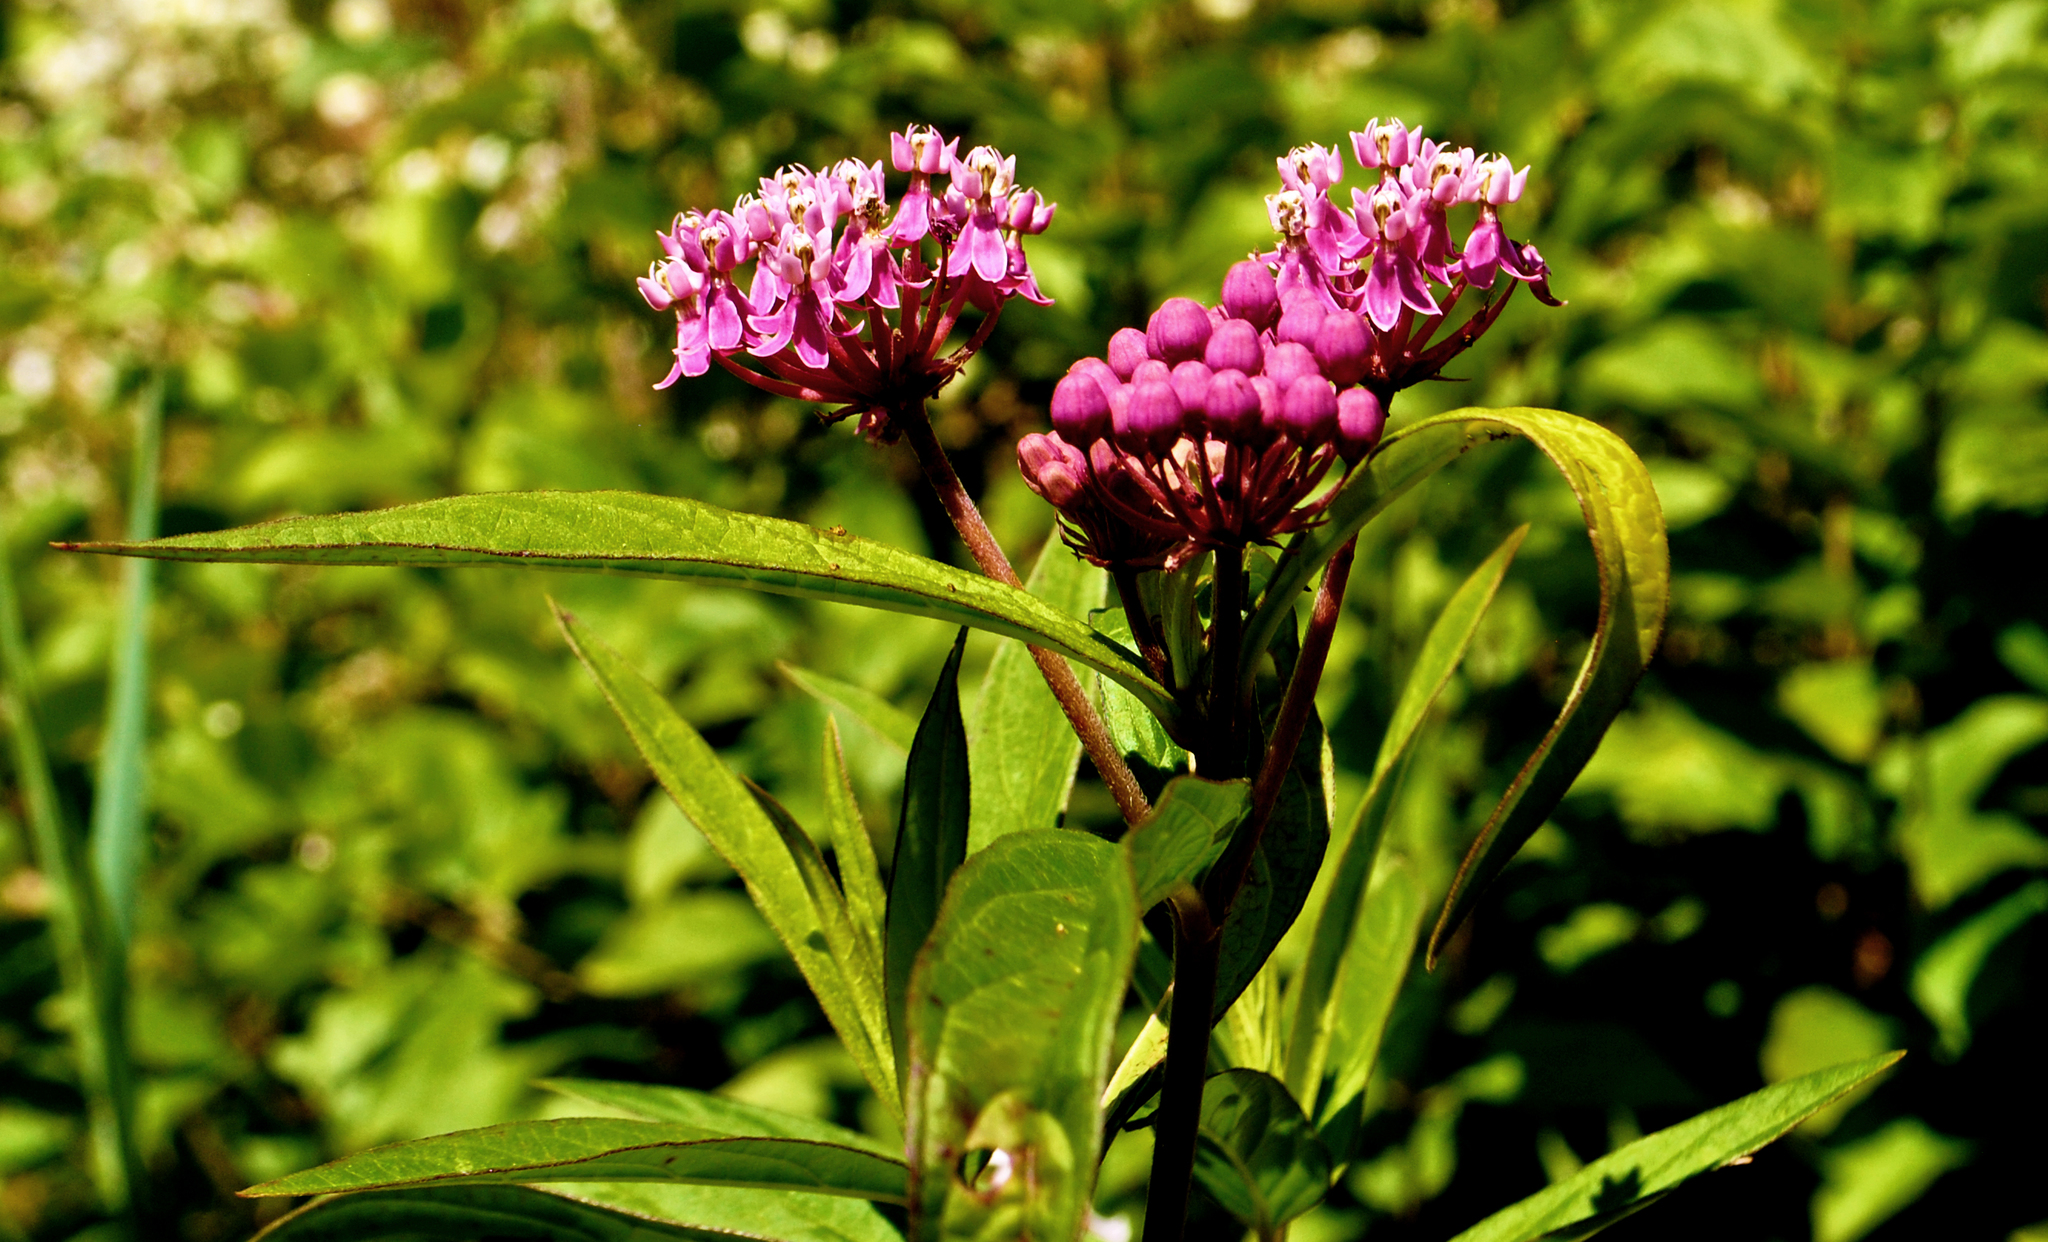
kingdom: Plantae
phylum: Tracheophyta
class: Magnoliopsida
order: Gentianales
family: Apocynaceae
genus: Asclepias
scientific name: Asclepias incarnata
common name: Swamp milkweed
